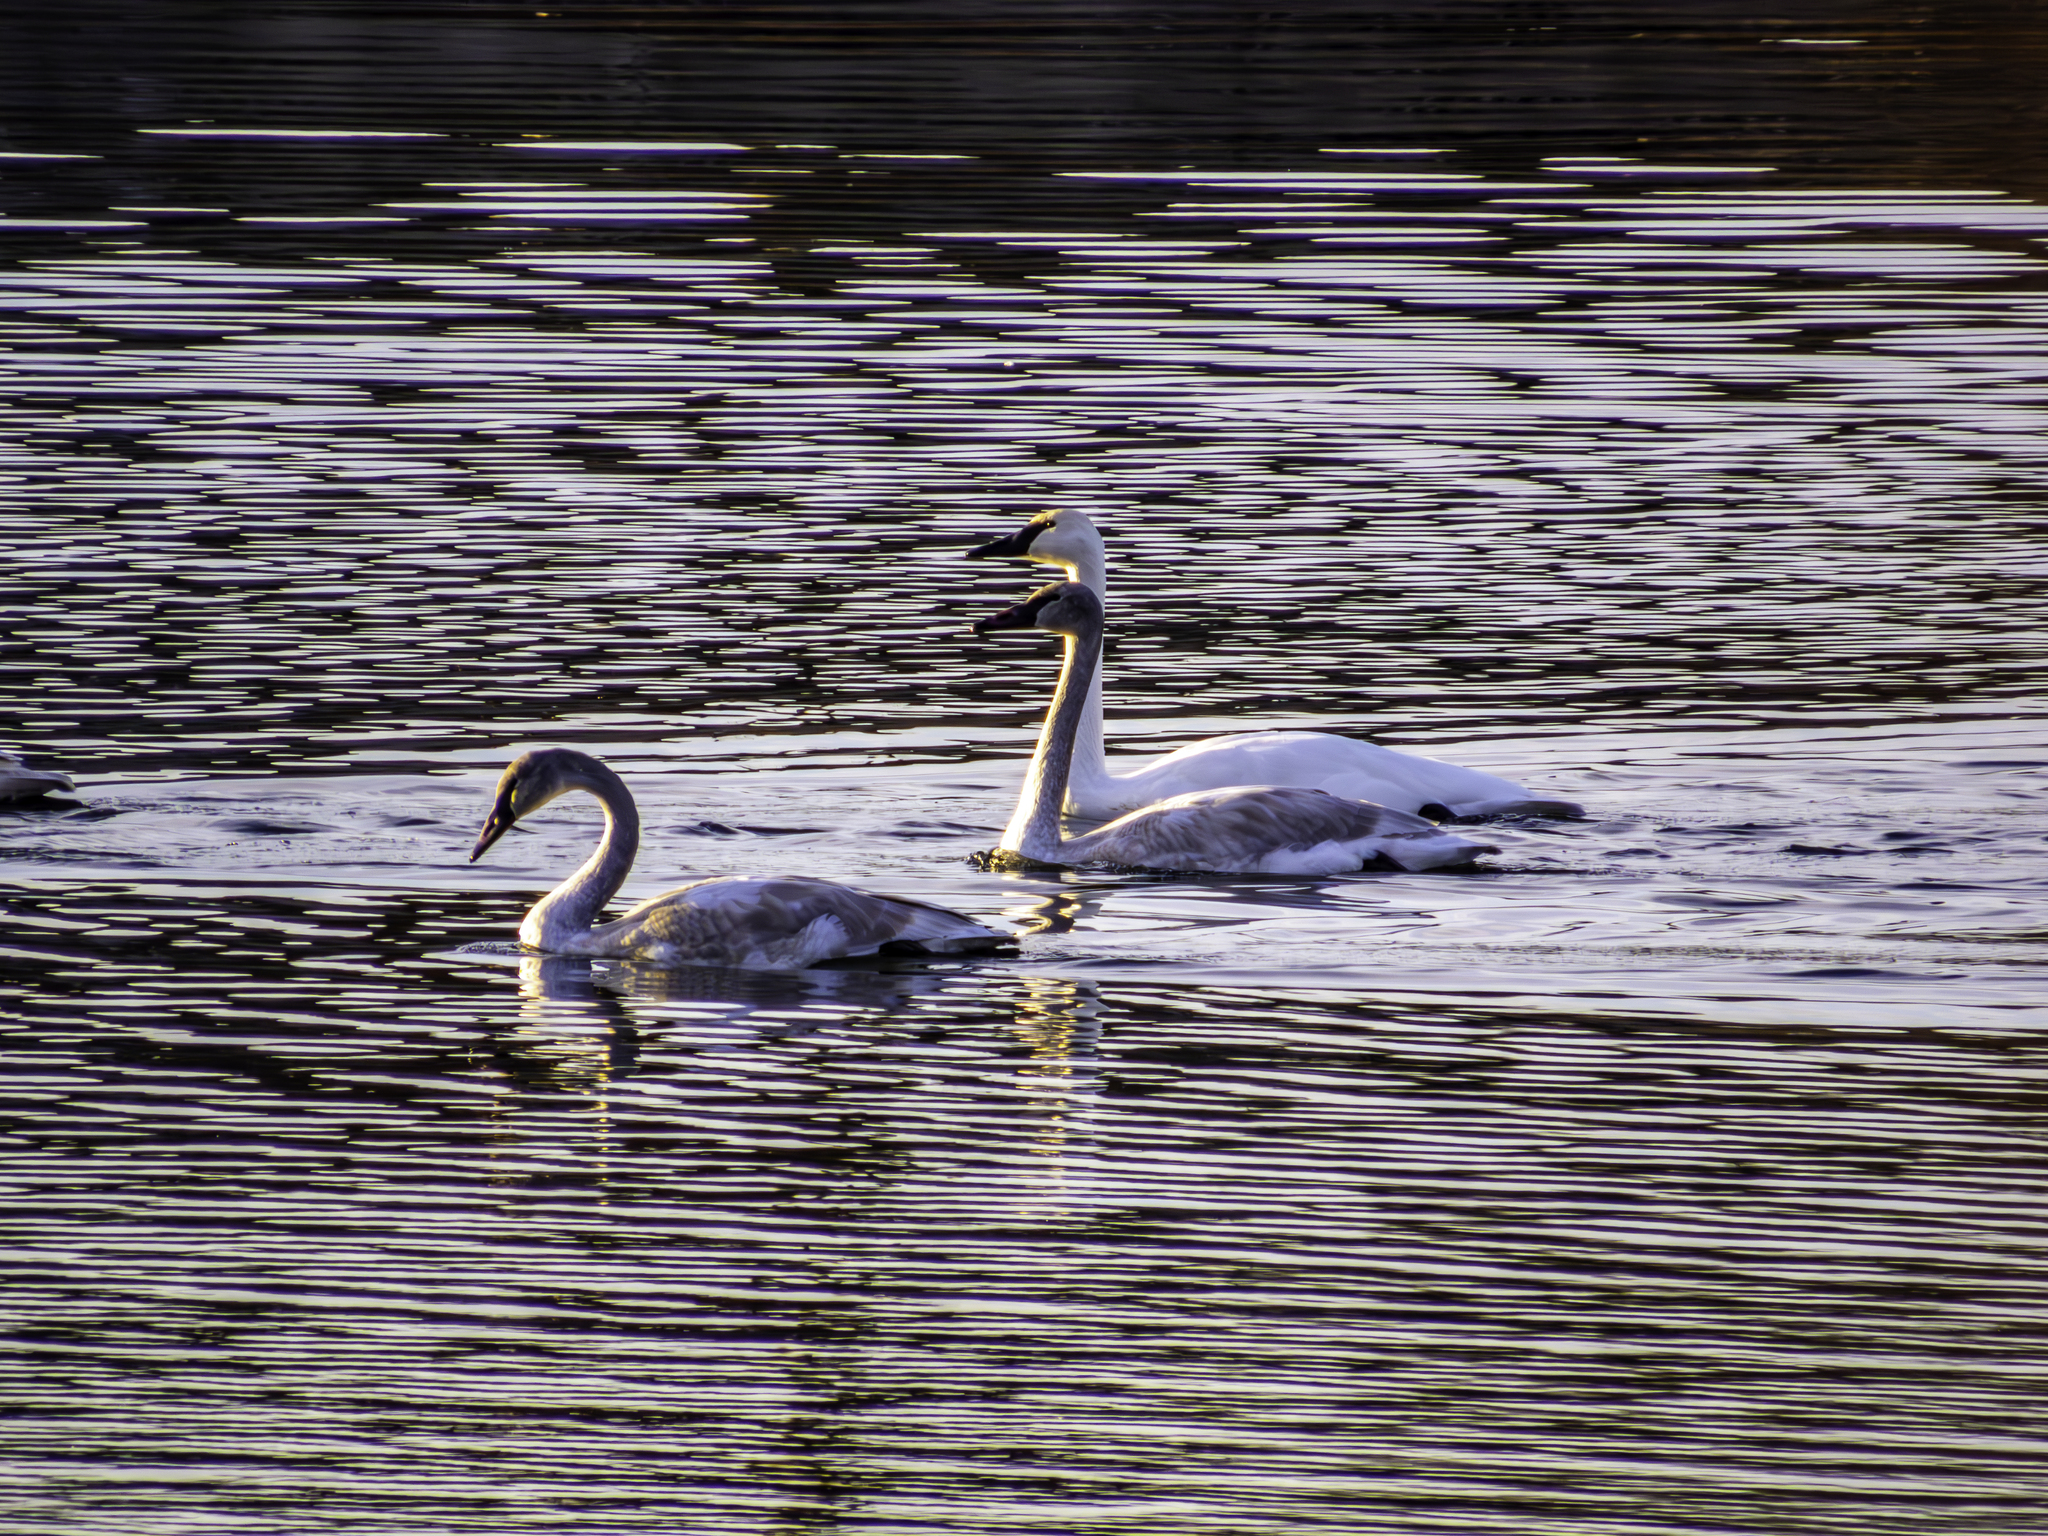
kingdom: Animalia
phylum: Chordata
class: Aves
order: Anseriformes
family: Anatidae
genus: Cygnus
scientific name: Cygnus buccinator
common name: Trumpeter swan
